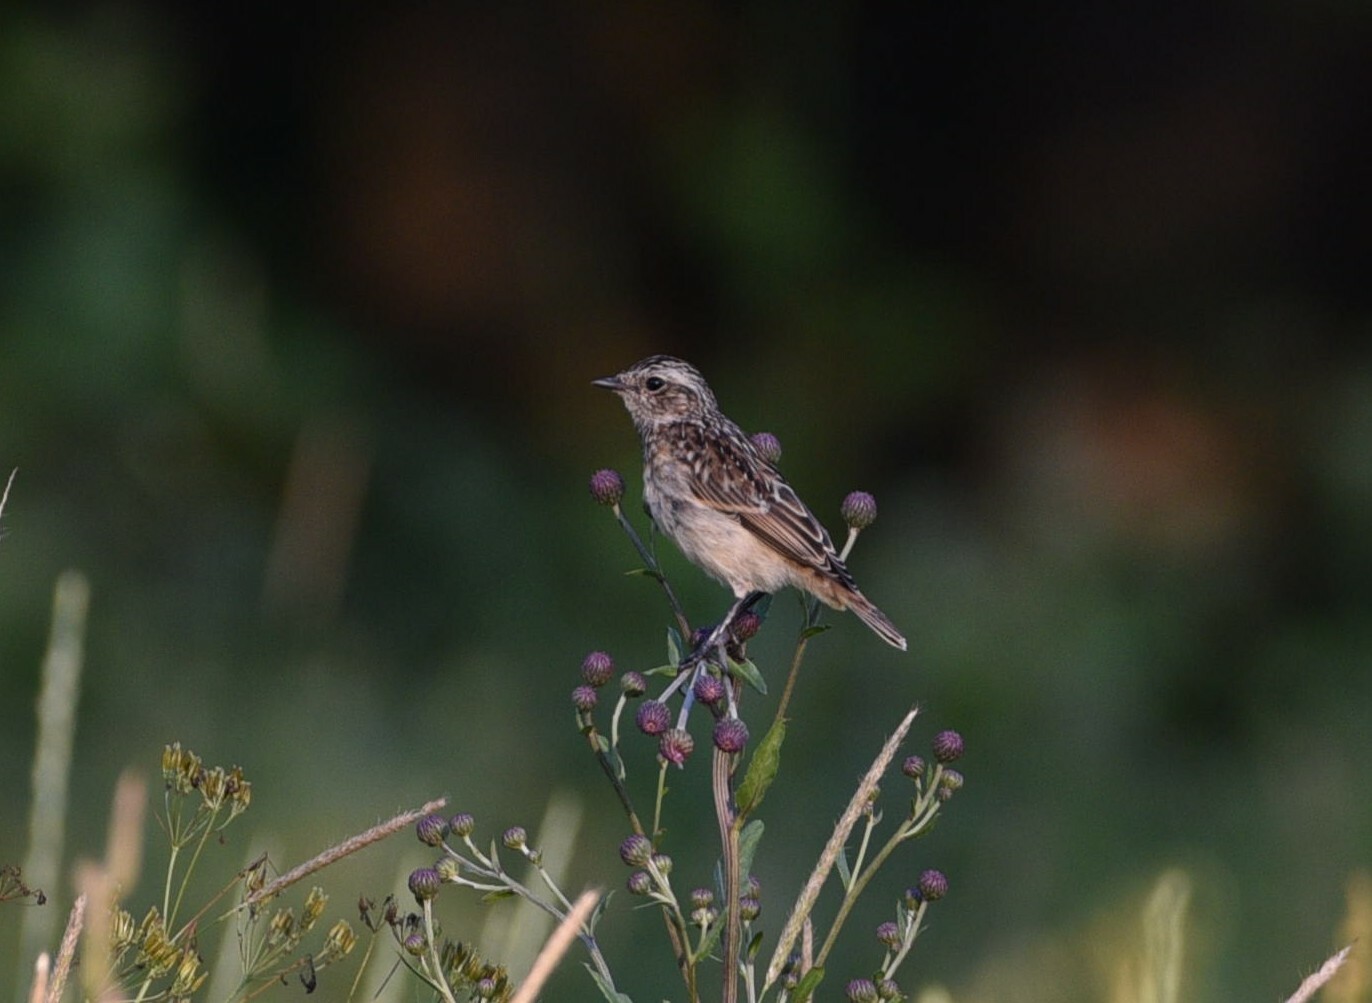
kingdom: Animalia
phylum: Chordata
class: Aves
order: Passeriformes
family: Muscicapidae
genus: Saxicola
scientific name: Saxicola rubetra
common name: Whinchat
